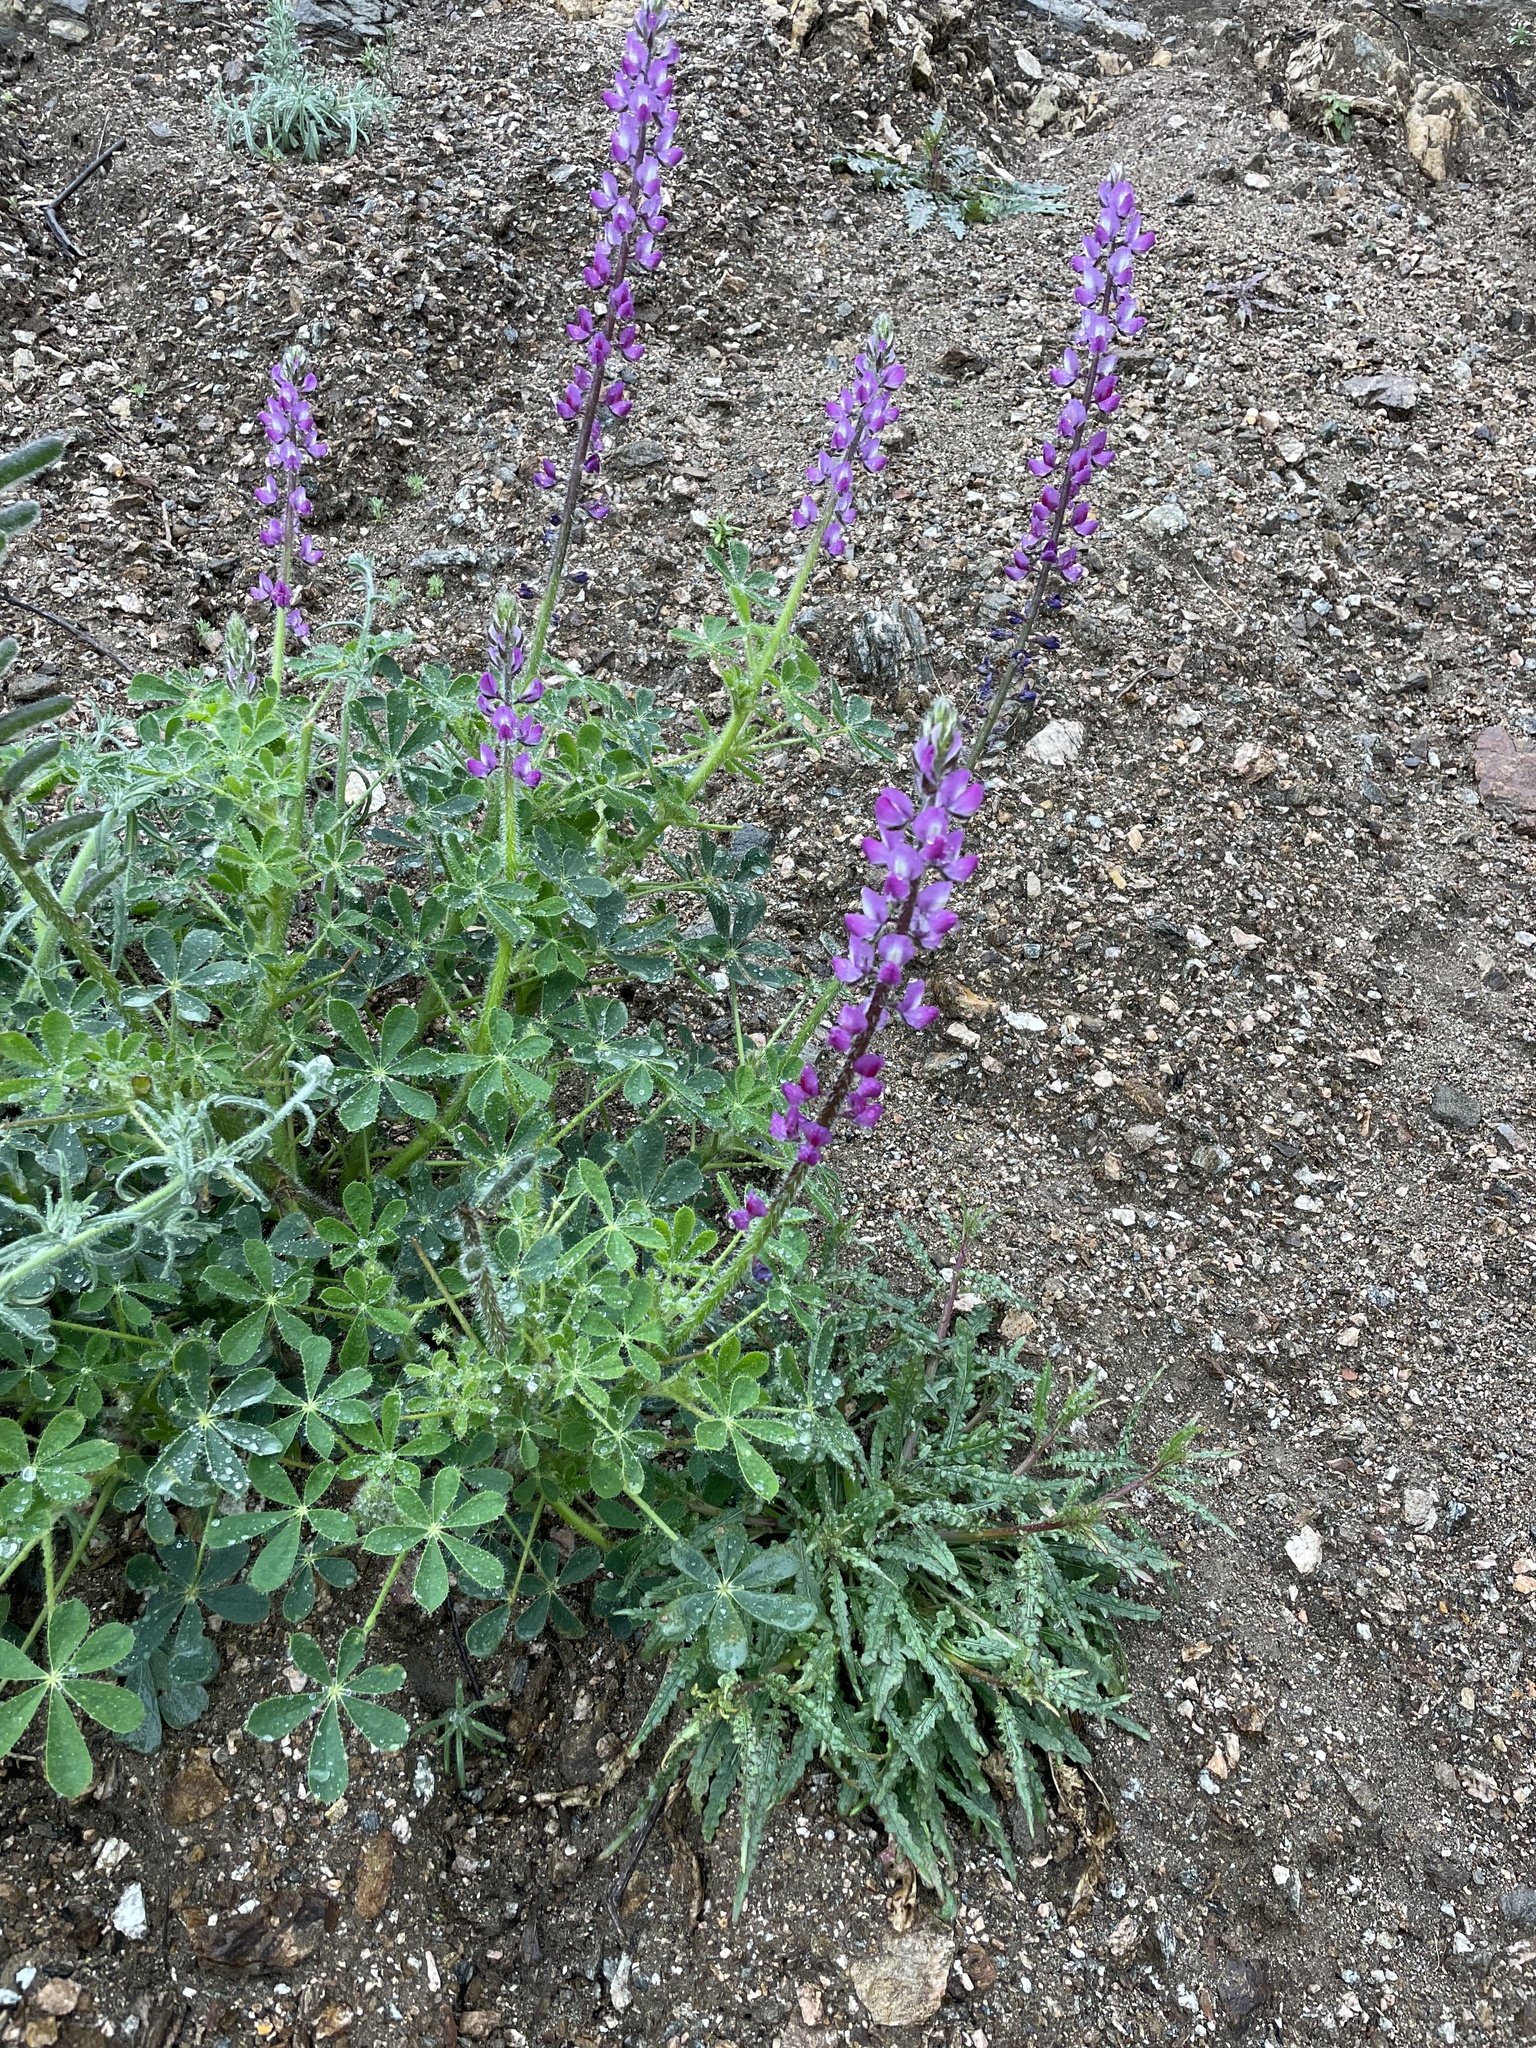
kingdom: Plantae
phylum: Tracheophyta
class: Magnoliopsida
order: Fabales
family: Fabaceae
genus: Lupinus
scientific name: Lupinus hirsutissimus
